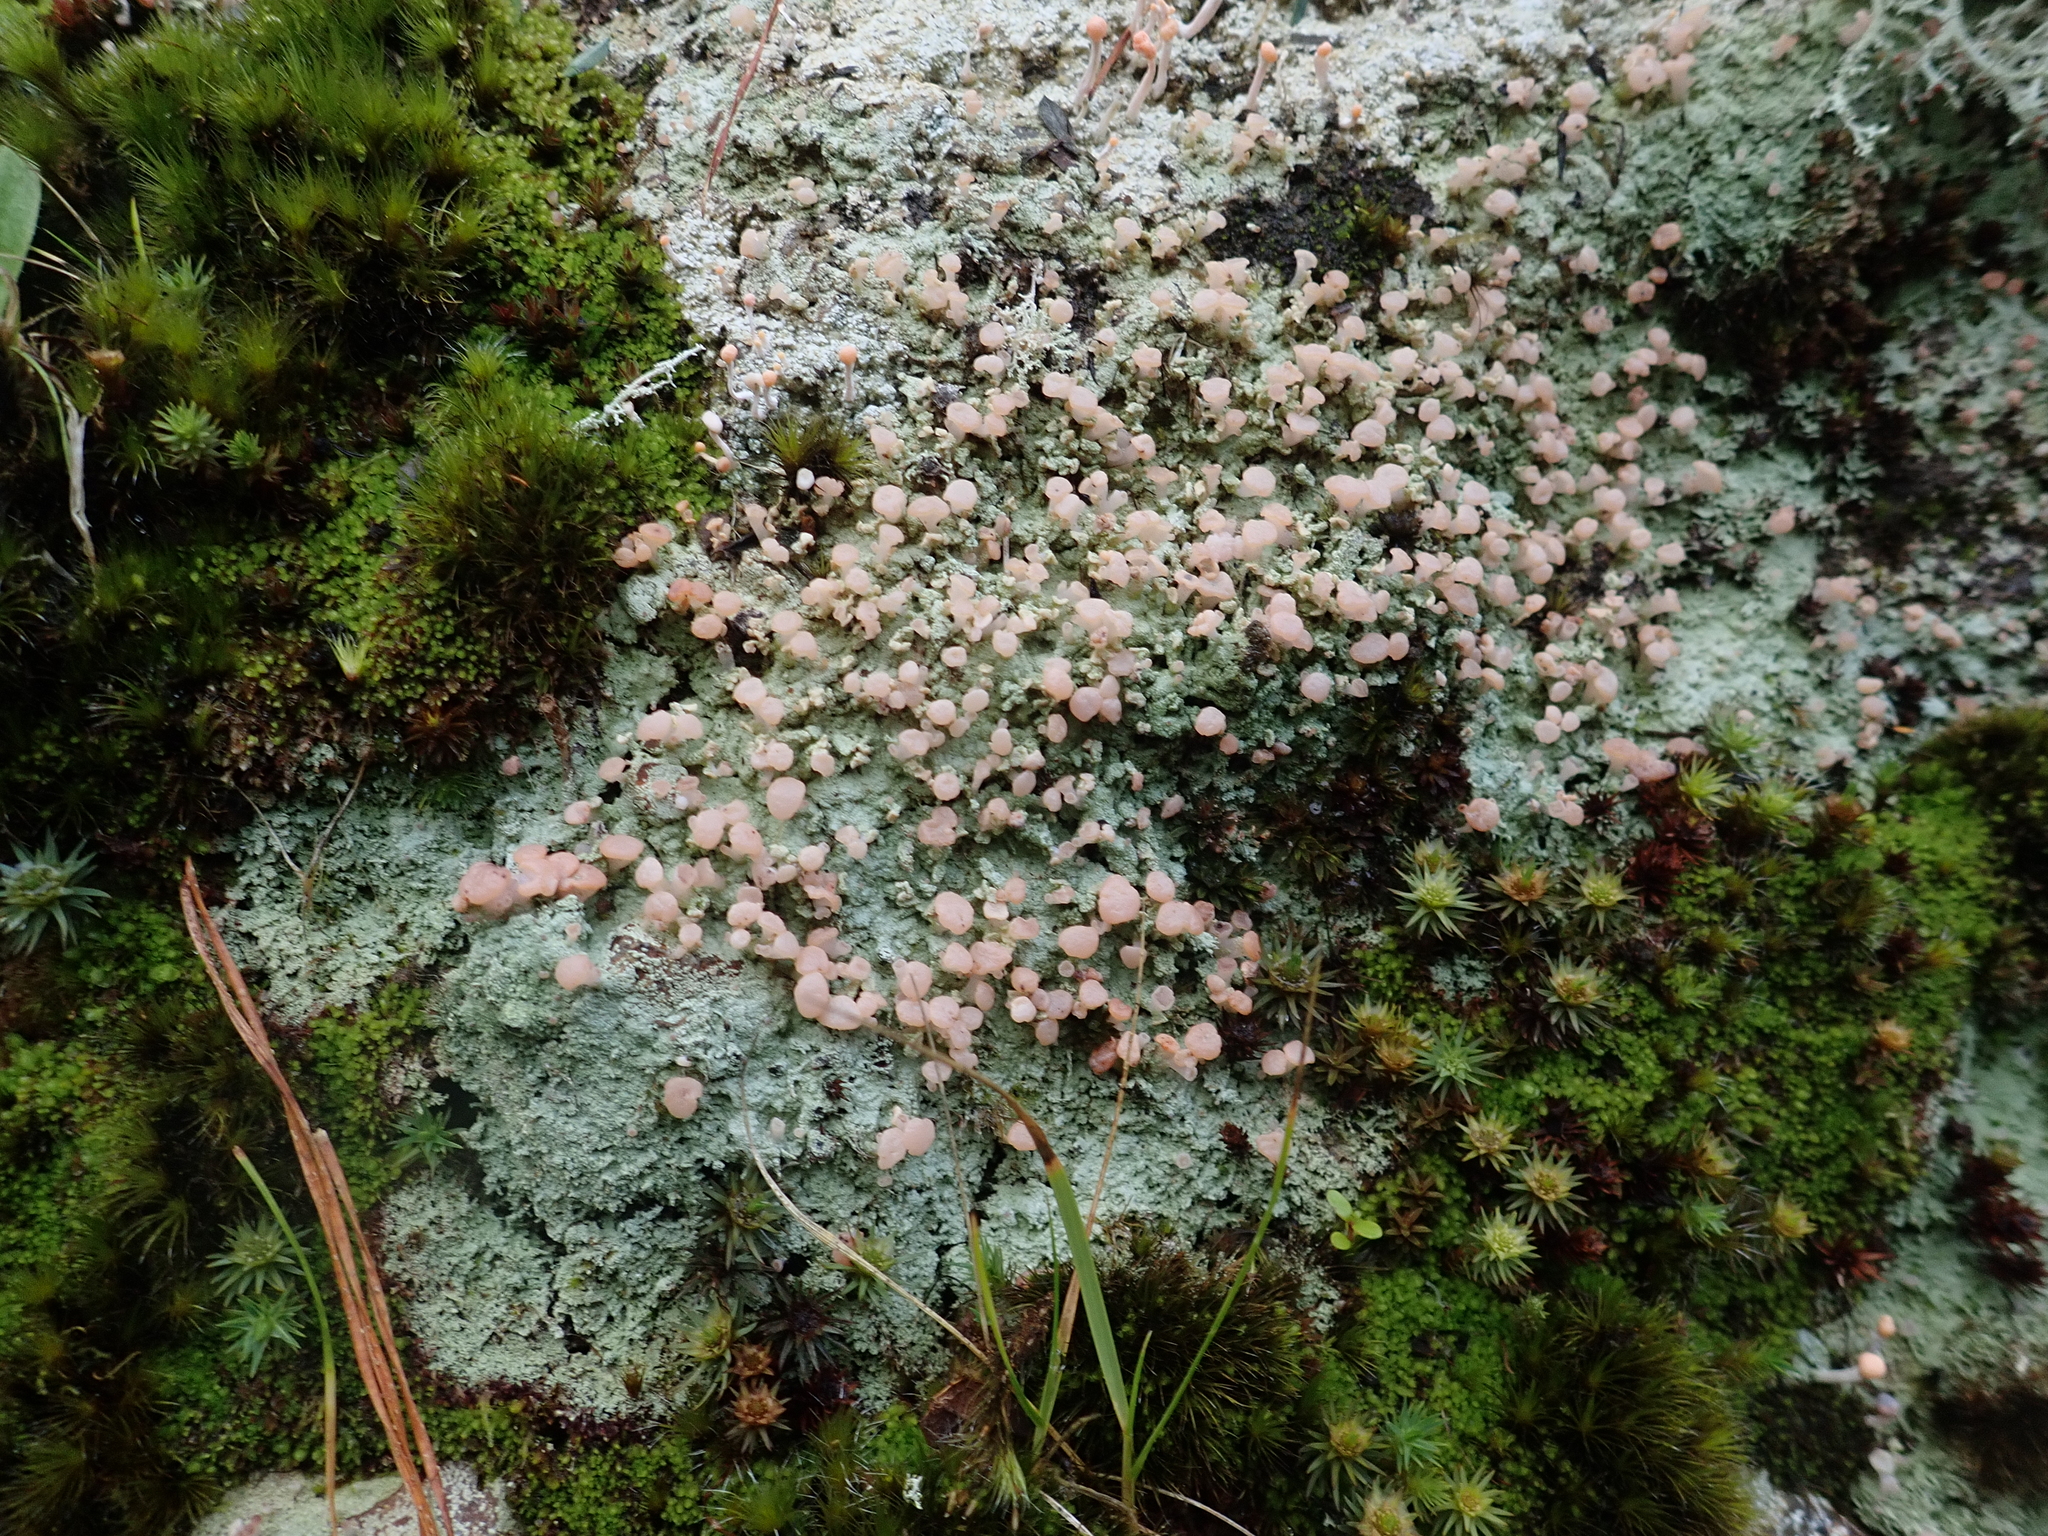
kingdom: Fungi
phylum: Ascomycota
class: Lecanoromycetes
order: Baeomycetales
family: Baeomycetaceae
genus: Baeomyces
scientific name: Baeomyces heteromorphus
